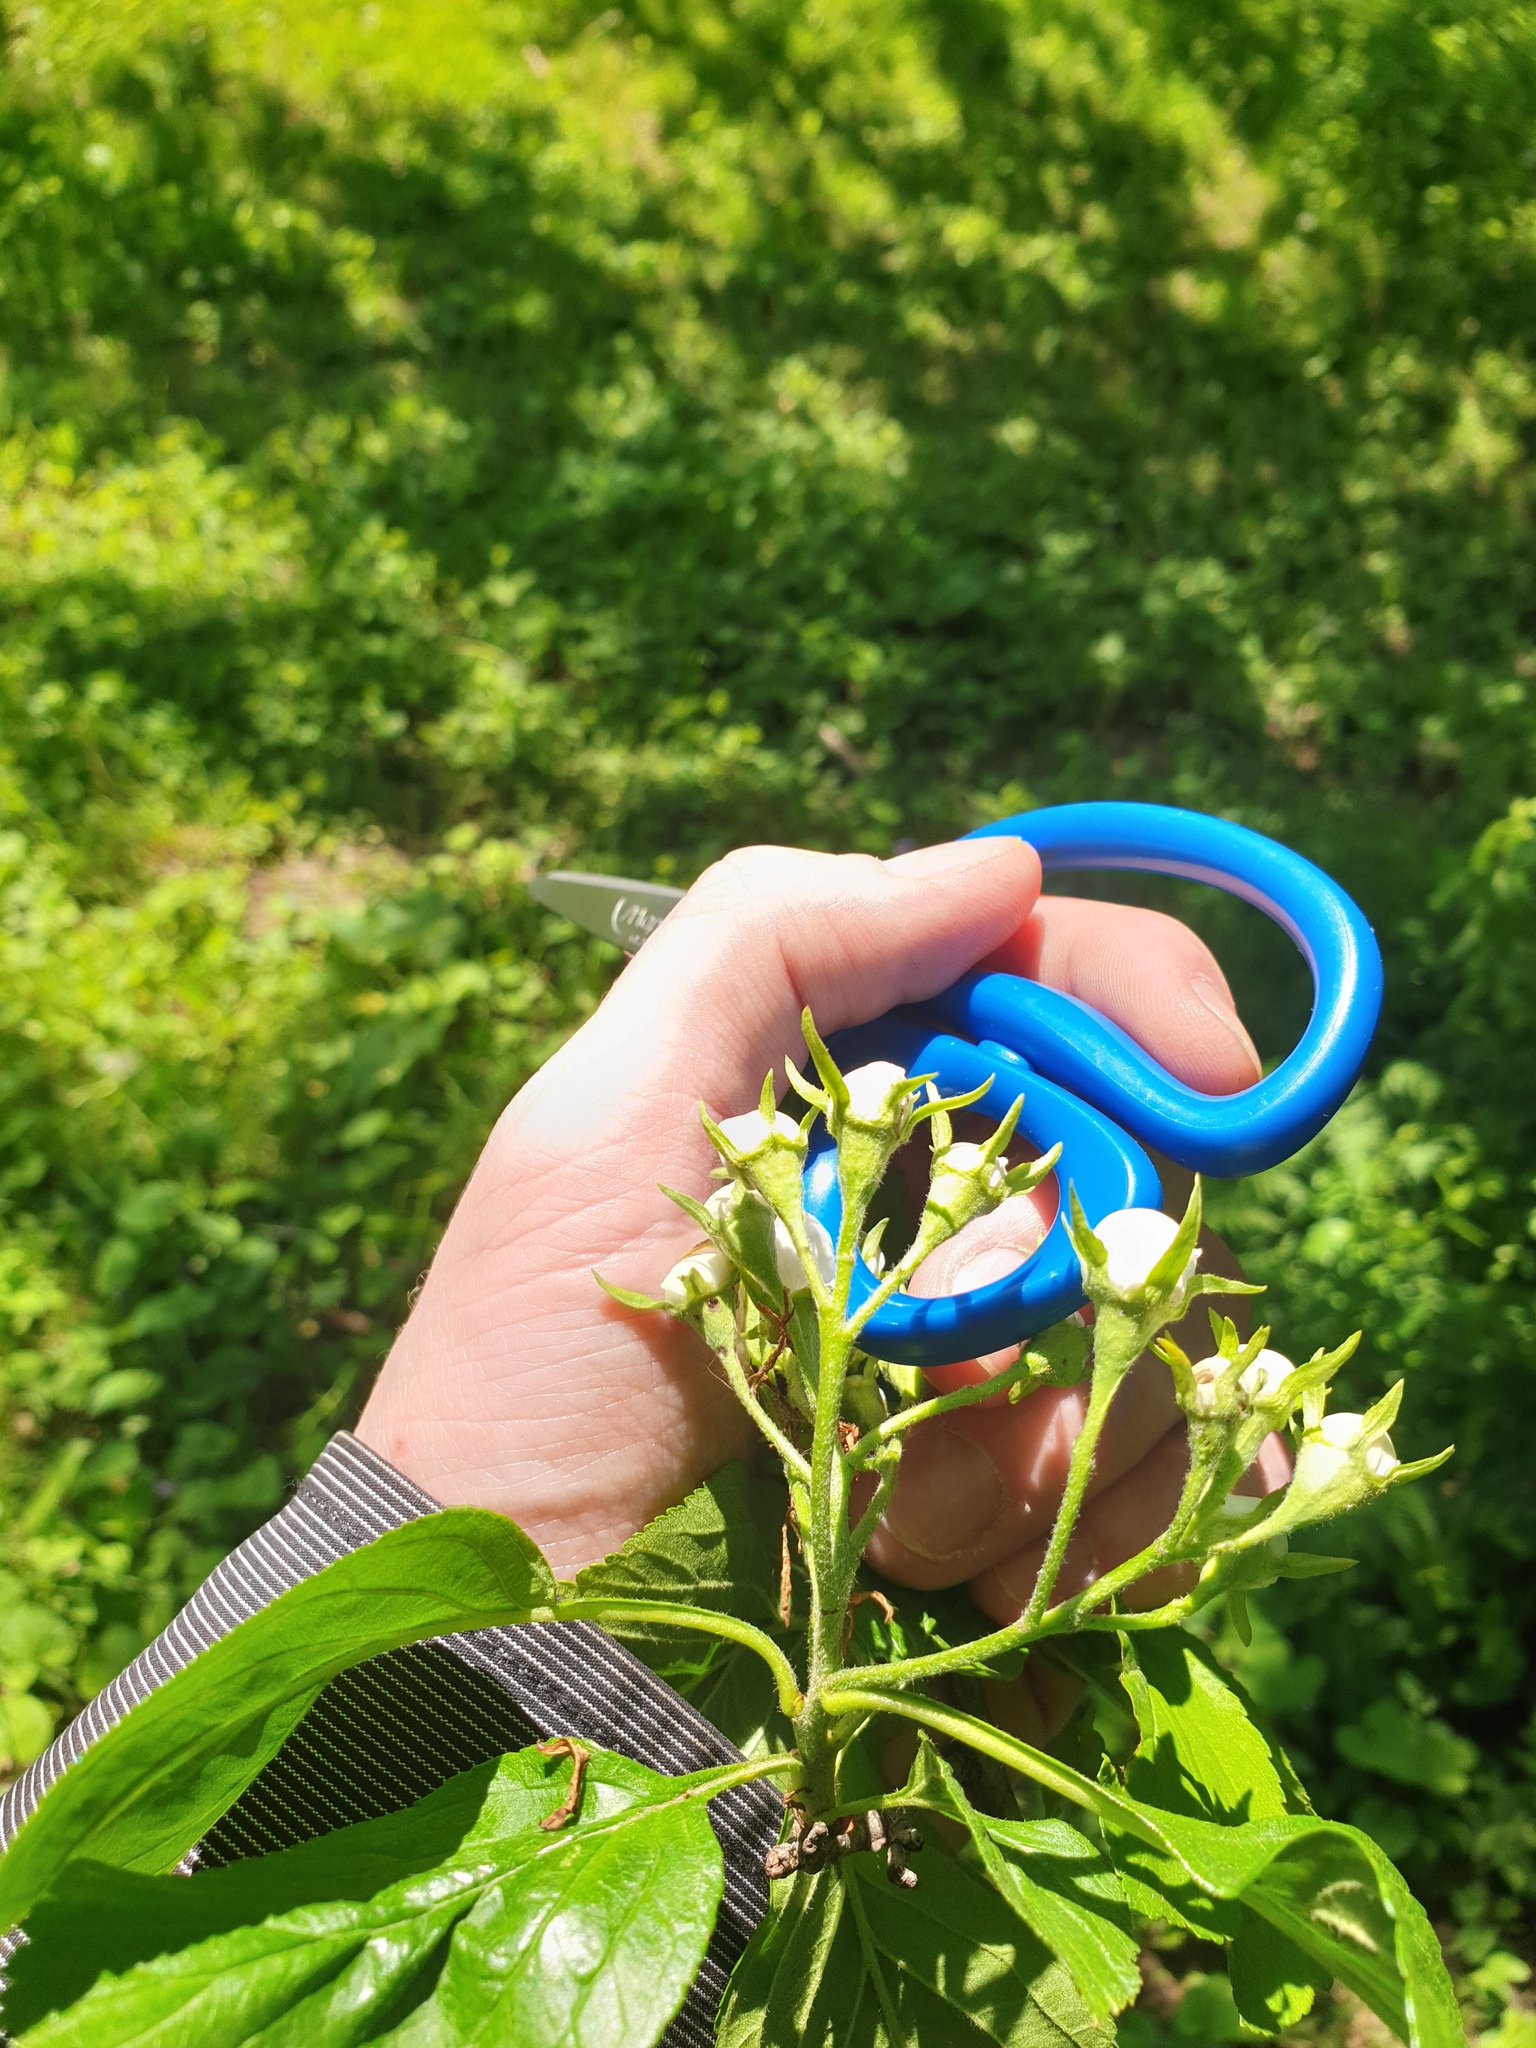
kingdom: Plantae
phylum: Tracheophyta
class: Magnoliopsida
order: Rosales
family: Rosaceae
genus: Crataegus
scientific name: Crataegus punctata
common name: Dotted hawthorn
